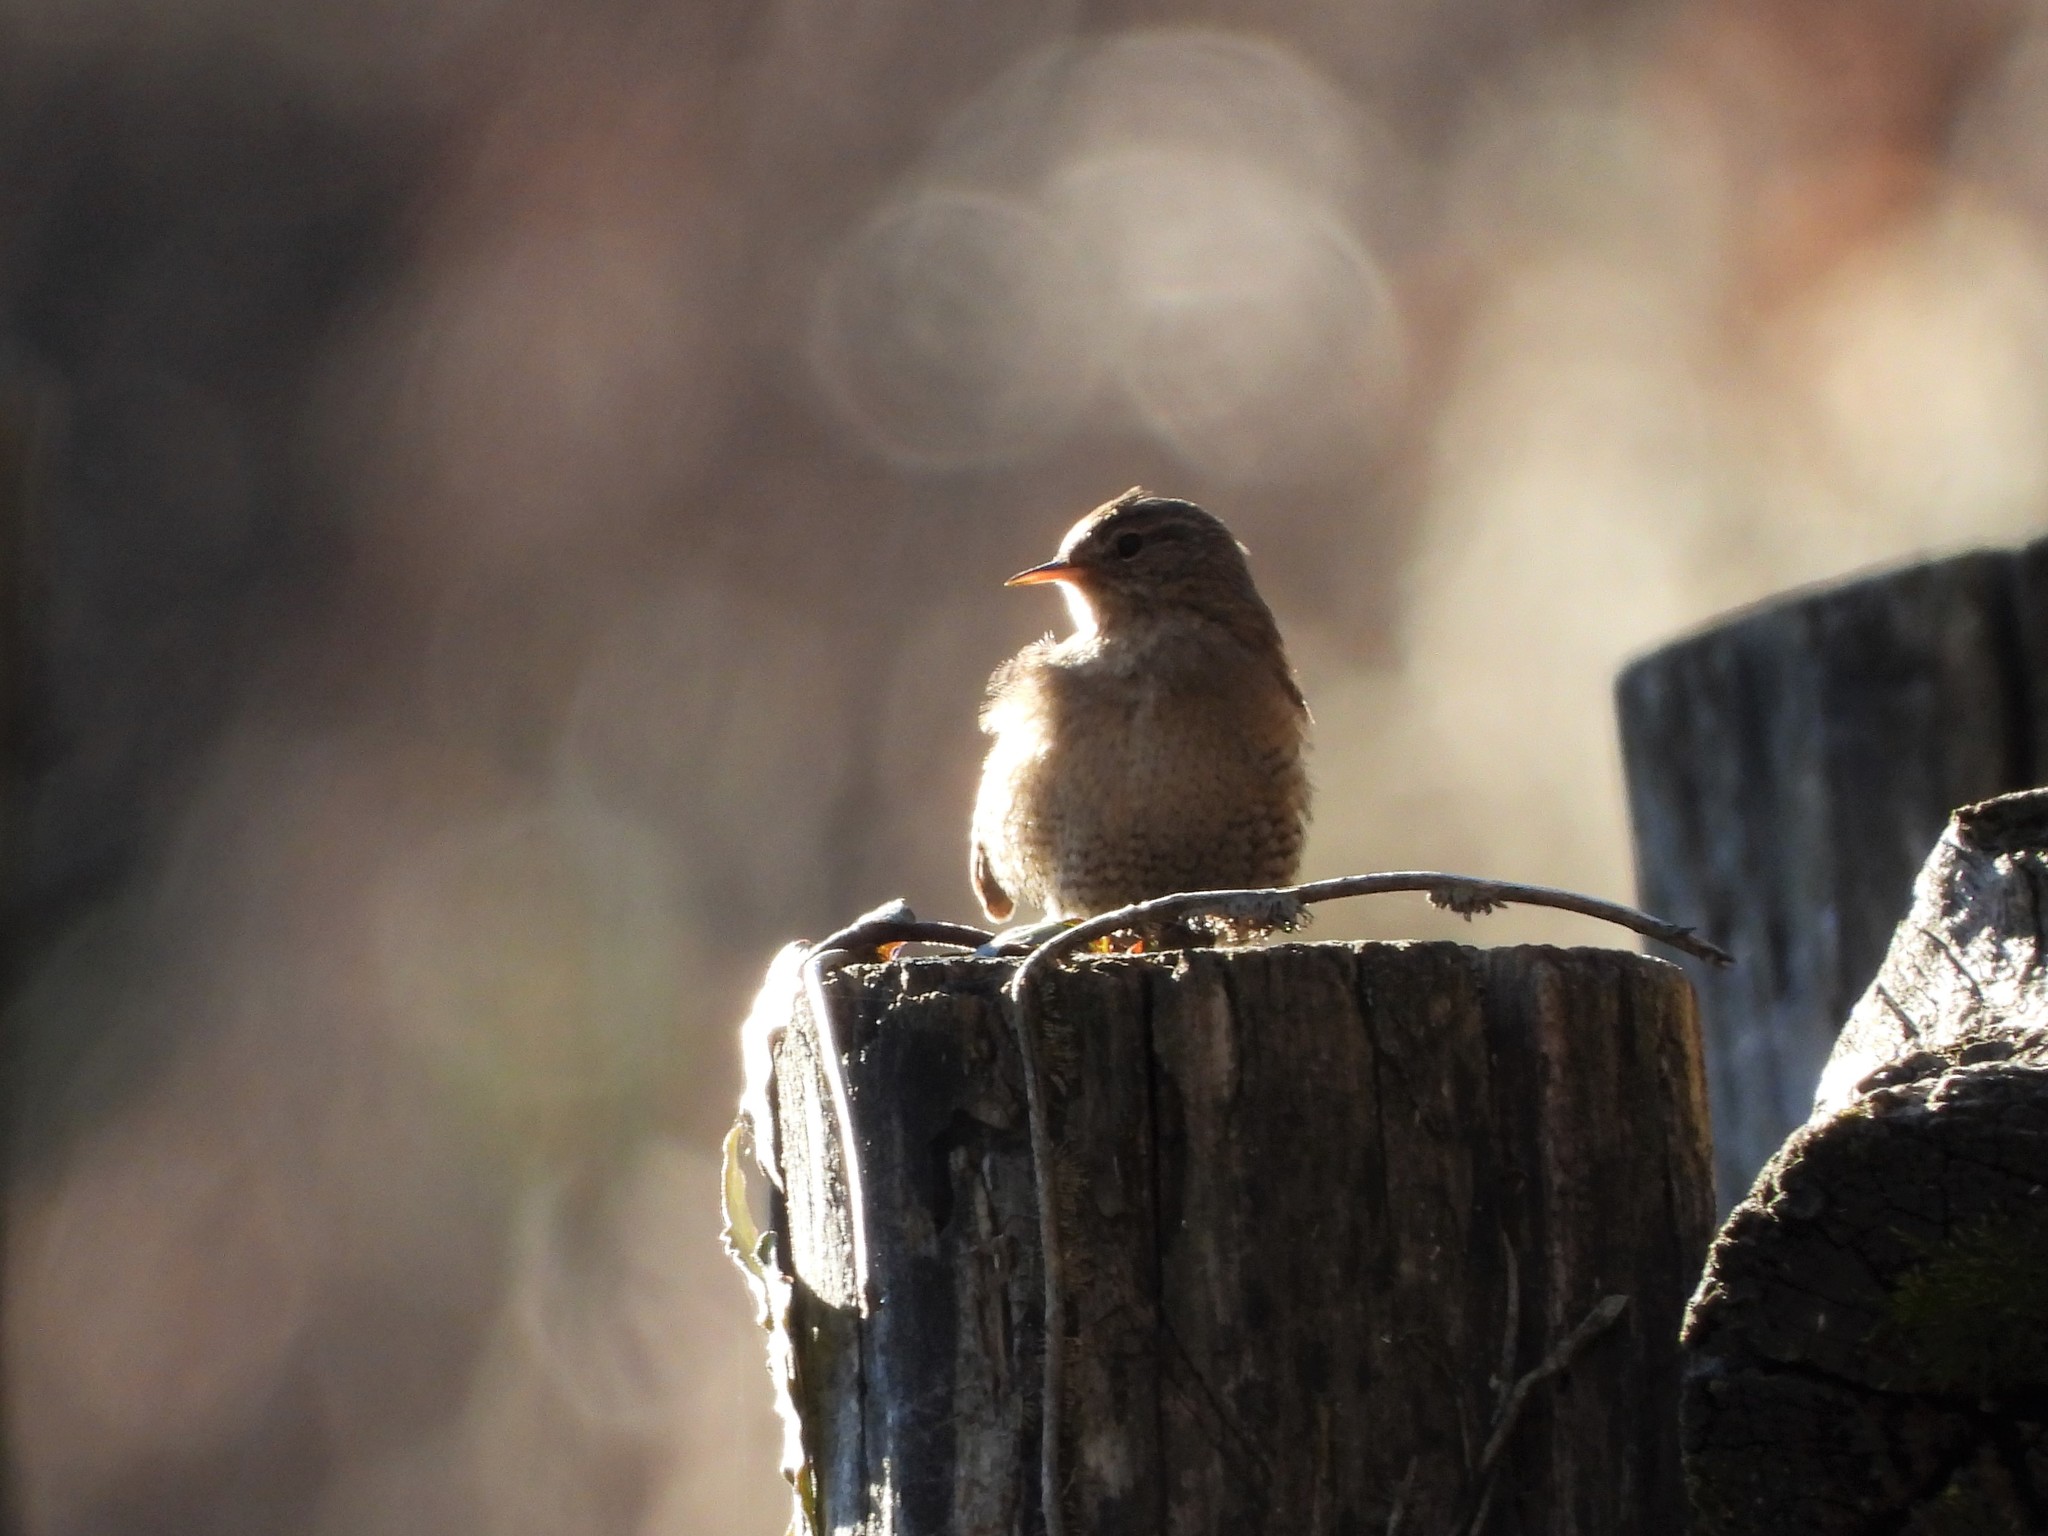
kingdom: Animalia
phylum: Chordata
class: Aves
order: Passeriformes
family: Troglodytidae
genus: Troglodytes
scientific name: Troglodytes troglodytes
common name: Eurasian wren
